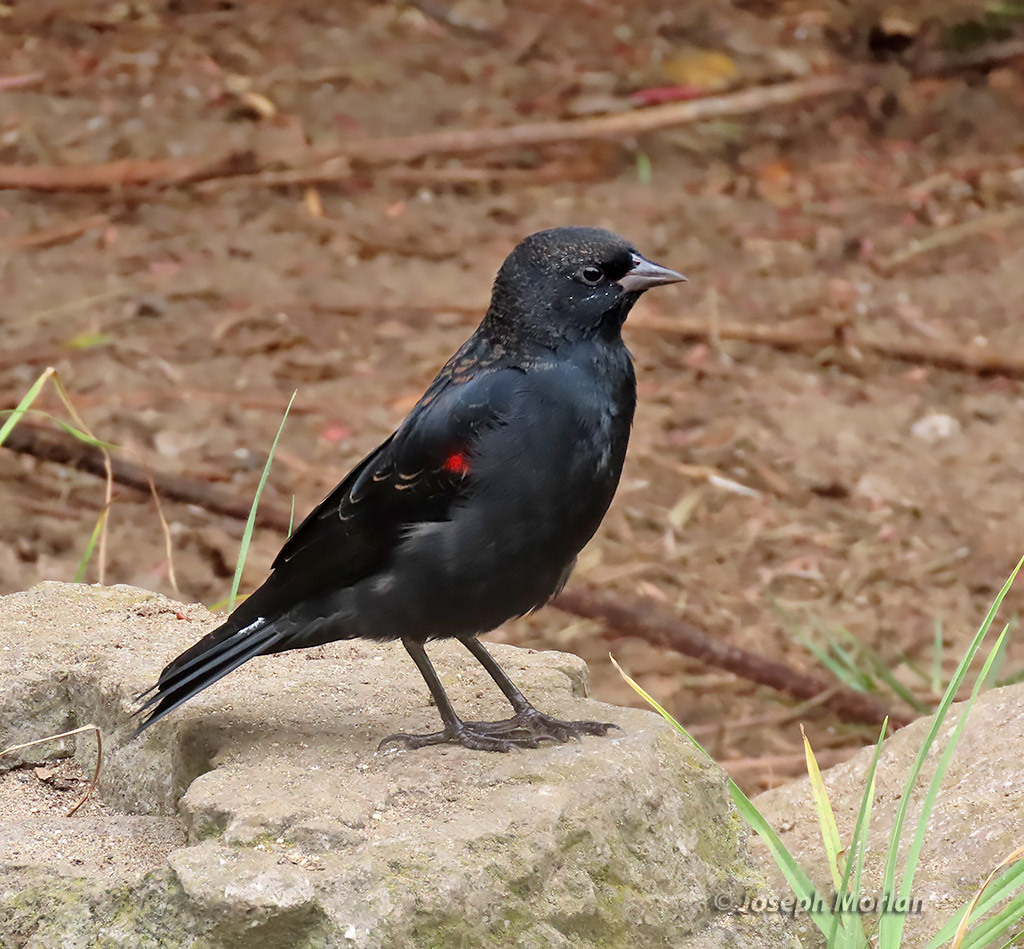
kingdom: Animalia
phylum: Chordata
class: Aves
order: Passeriformes
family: Icteridae
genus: Agelaius
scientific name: Agelaius phoeniceus
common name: Red-winged blackbird
